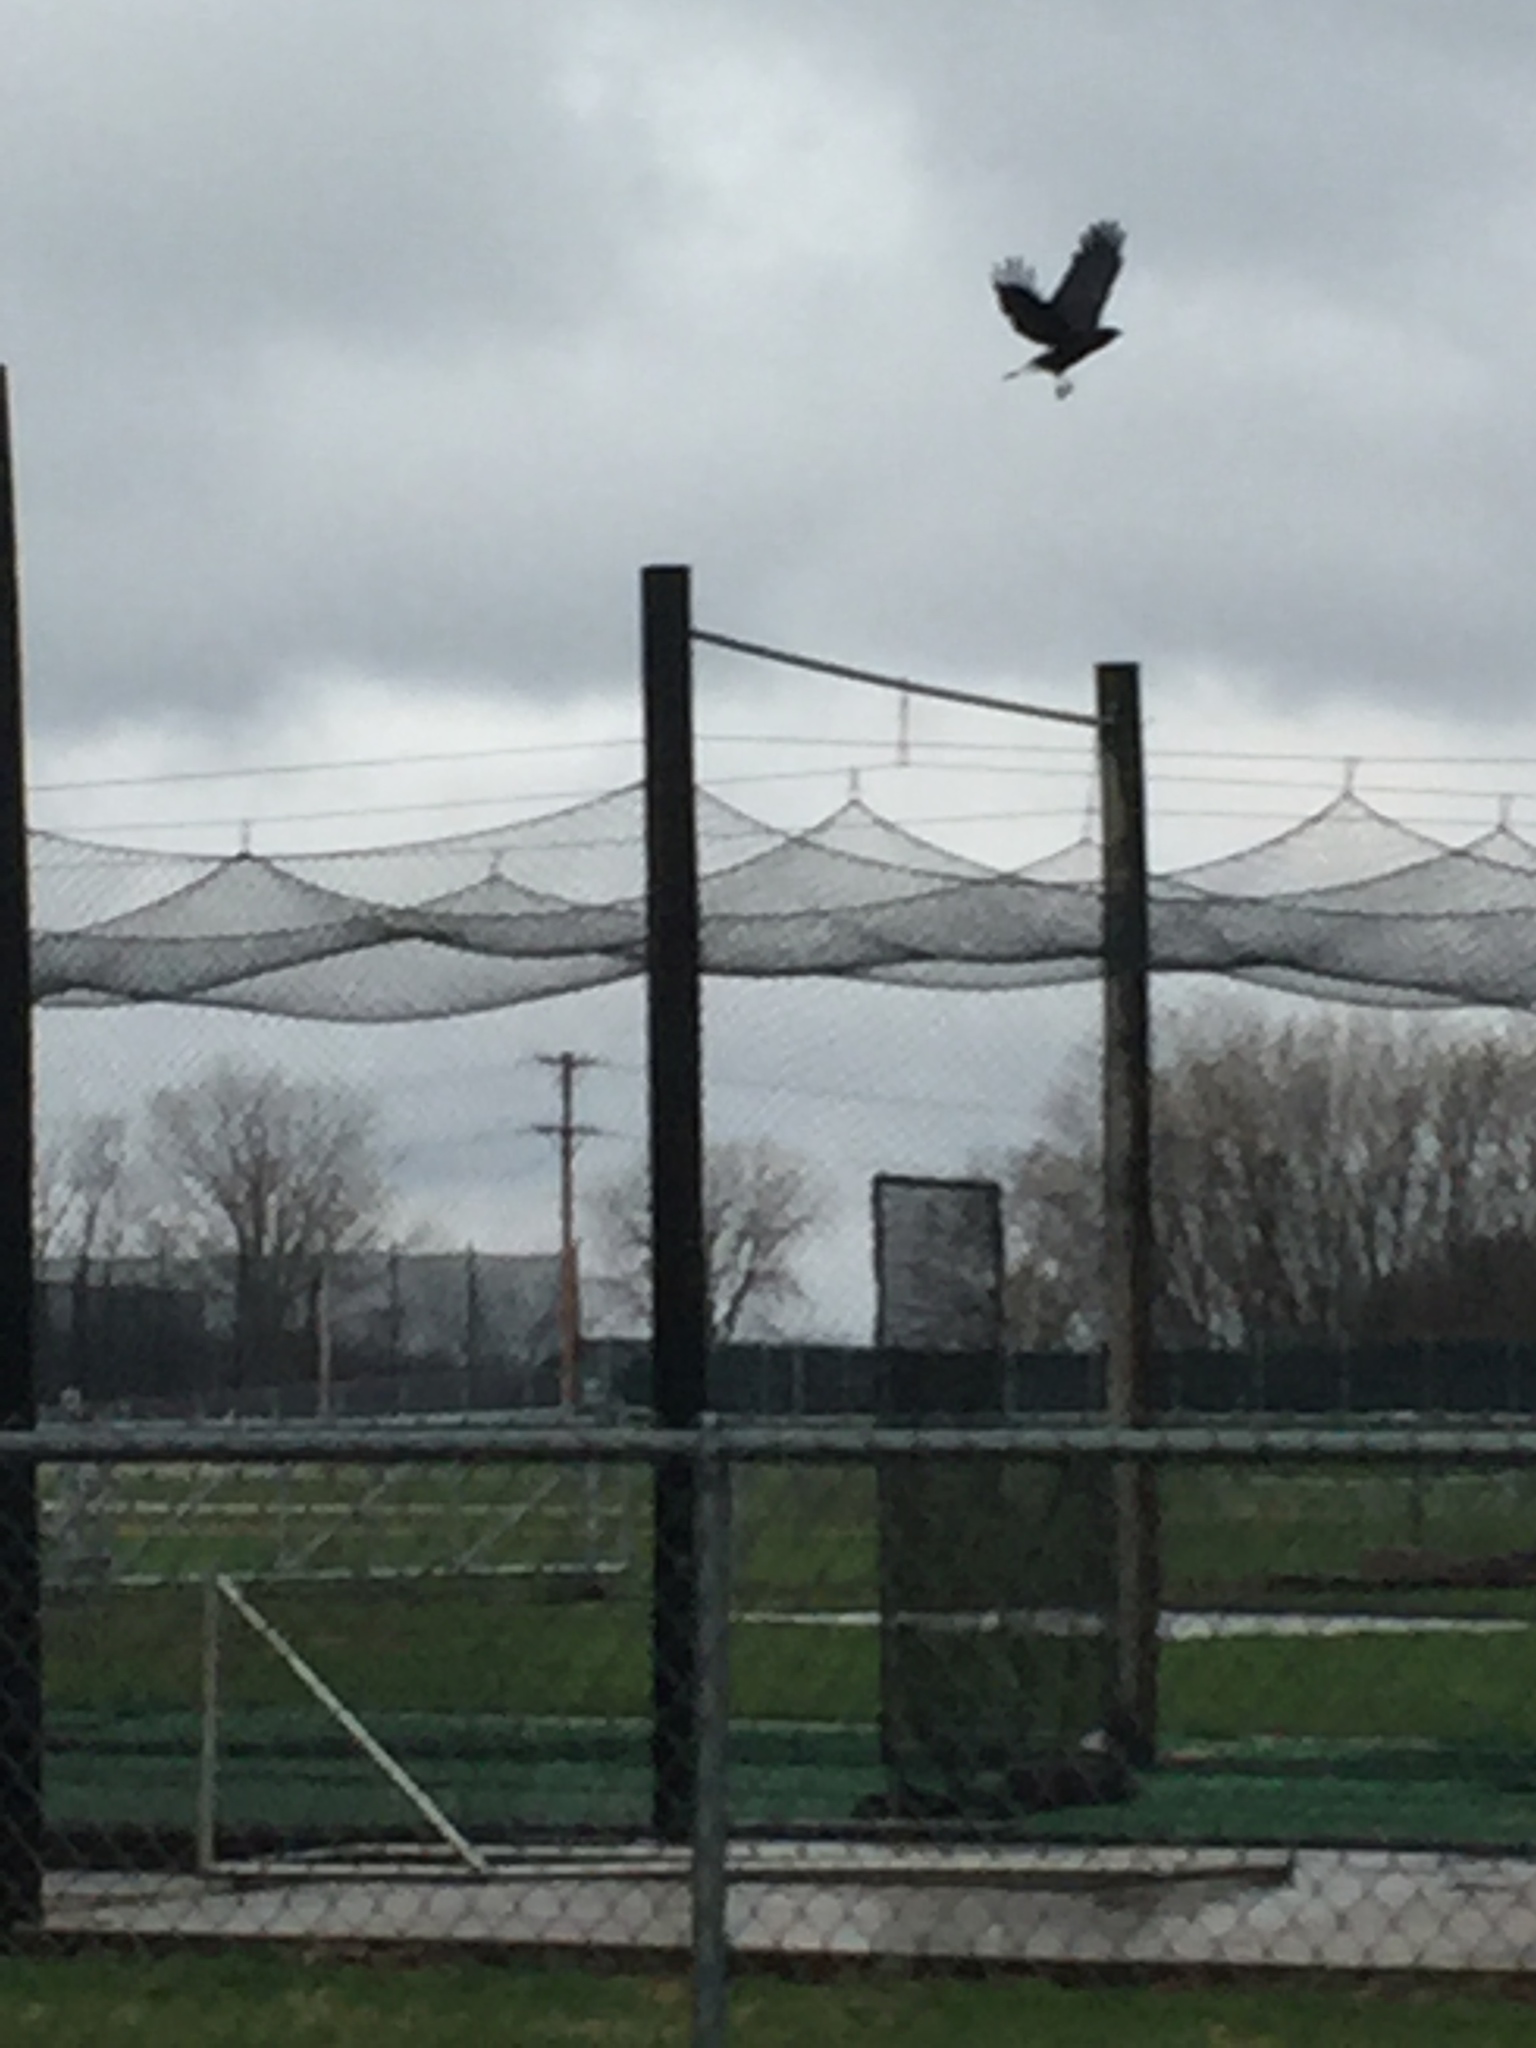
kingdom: Animalia
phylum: Chordata
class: Aves
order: Passeriformes
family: Corvidae
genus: Corvus
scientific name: Corvus brachyrhynchos
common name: American crow
